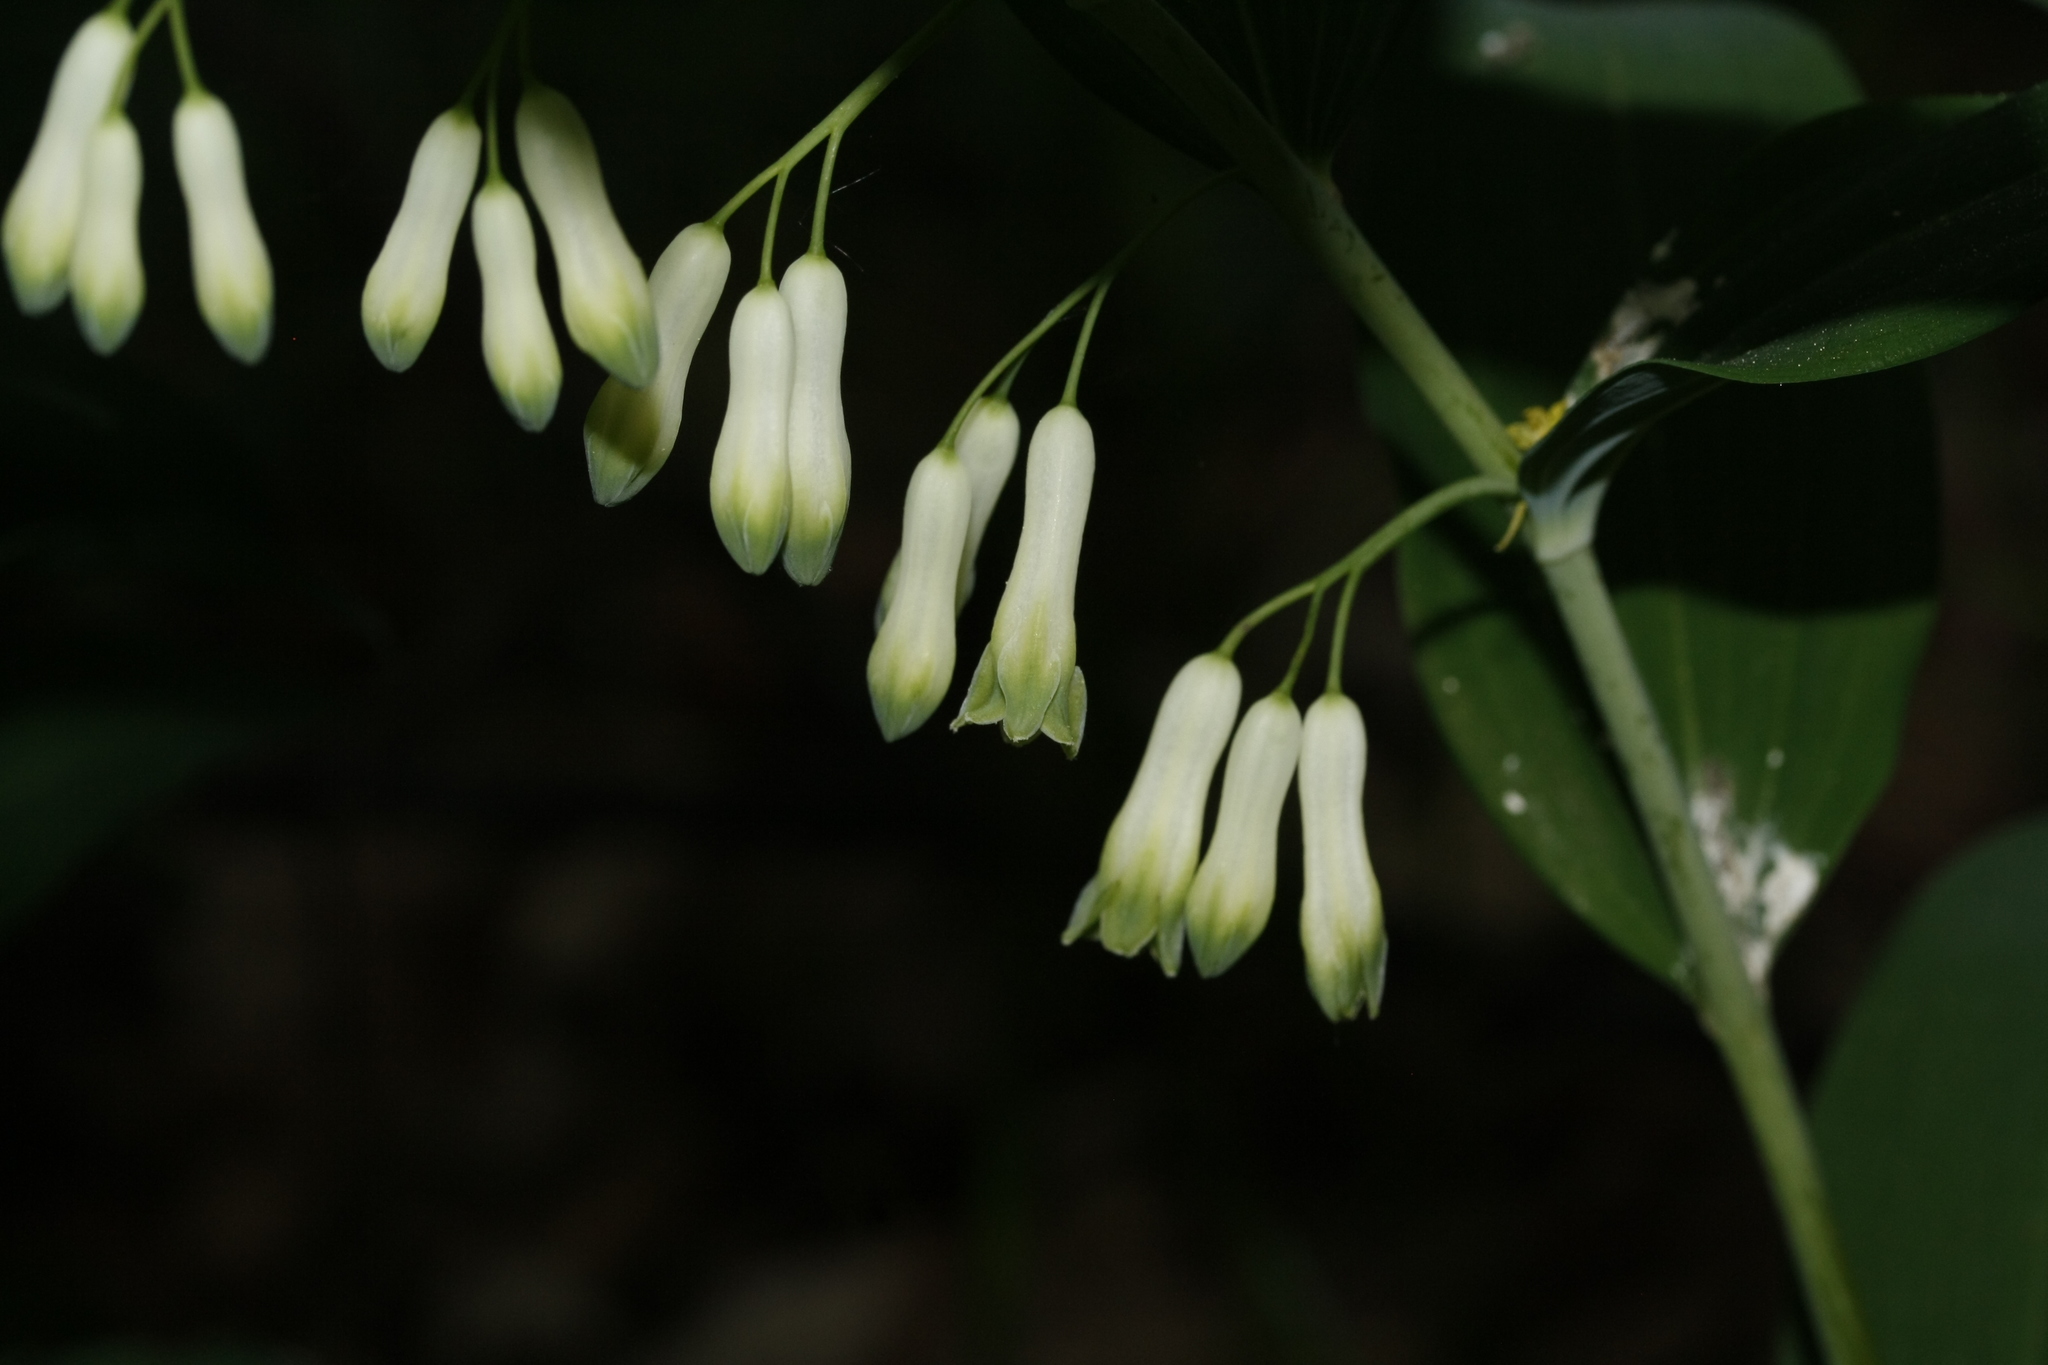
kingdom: Plantae
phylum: Tracheophyta
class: Liliopsida
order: Asparagales
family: Asparagaceae
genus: Polygonatum
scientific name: Polygonatum multiflorum
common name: Solomon's-seal
